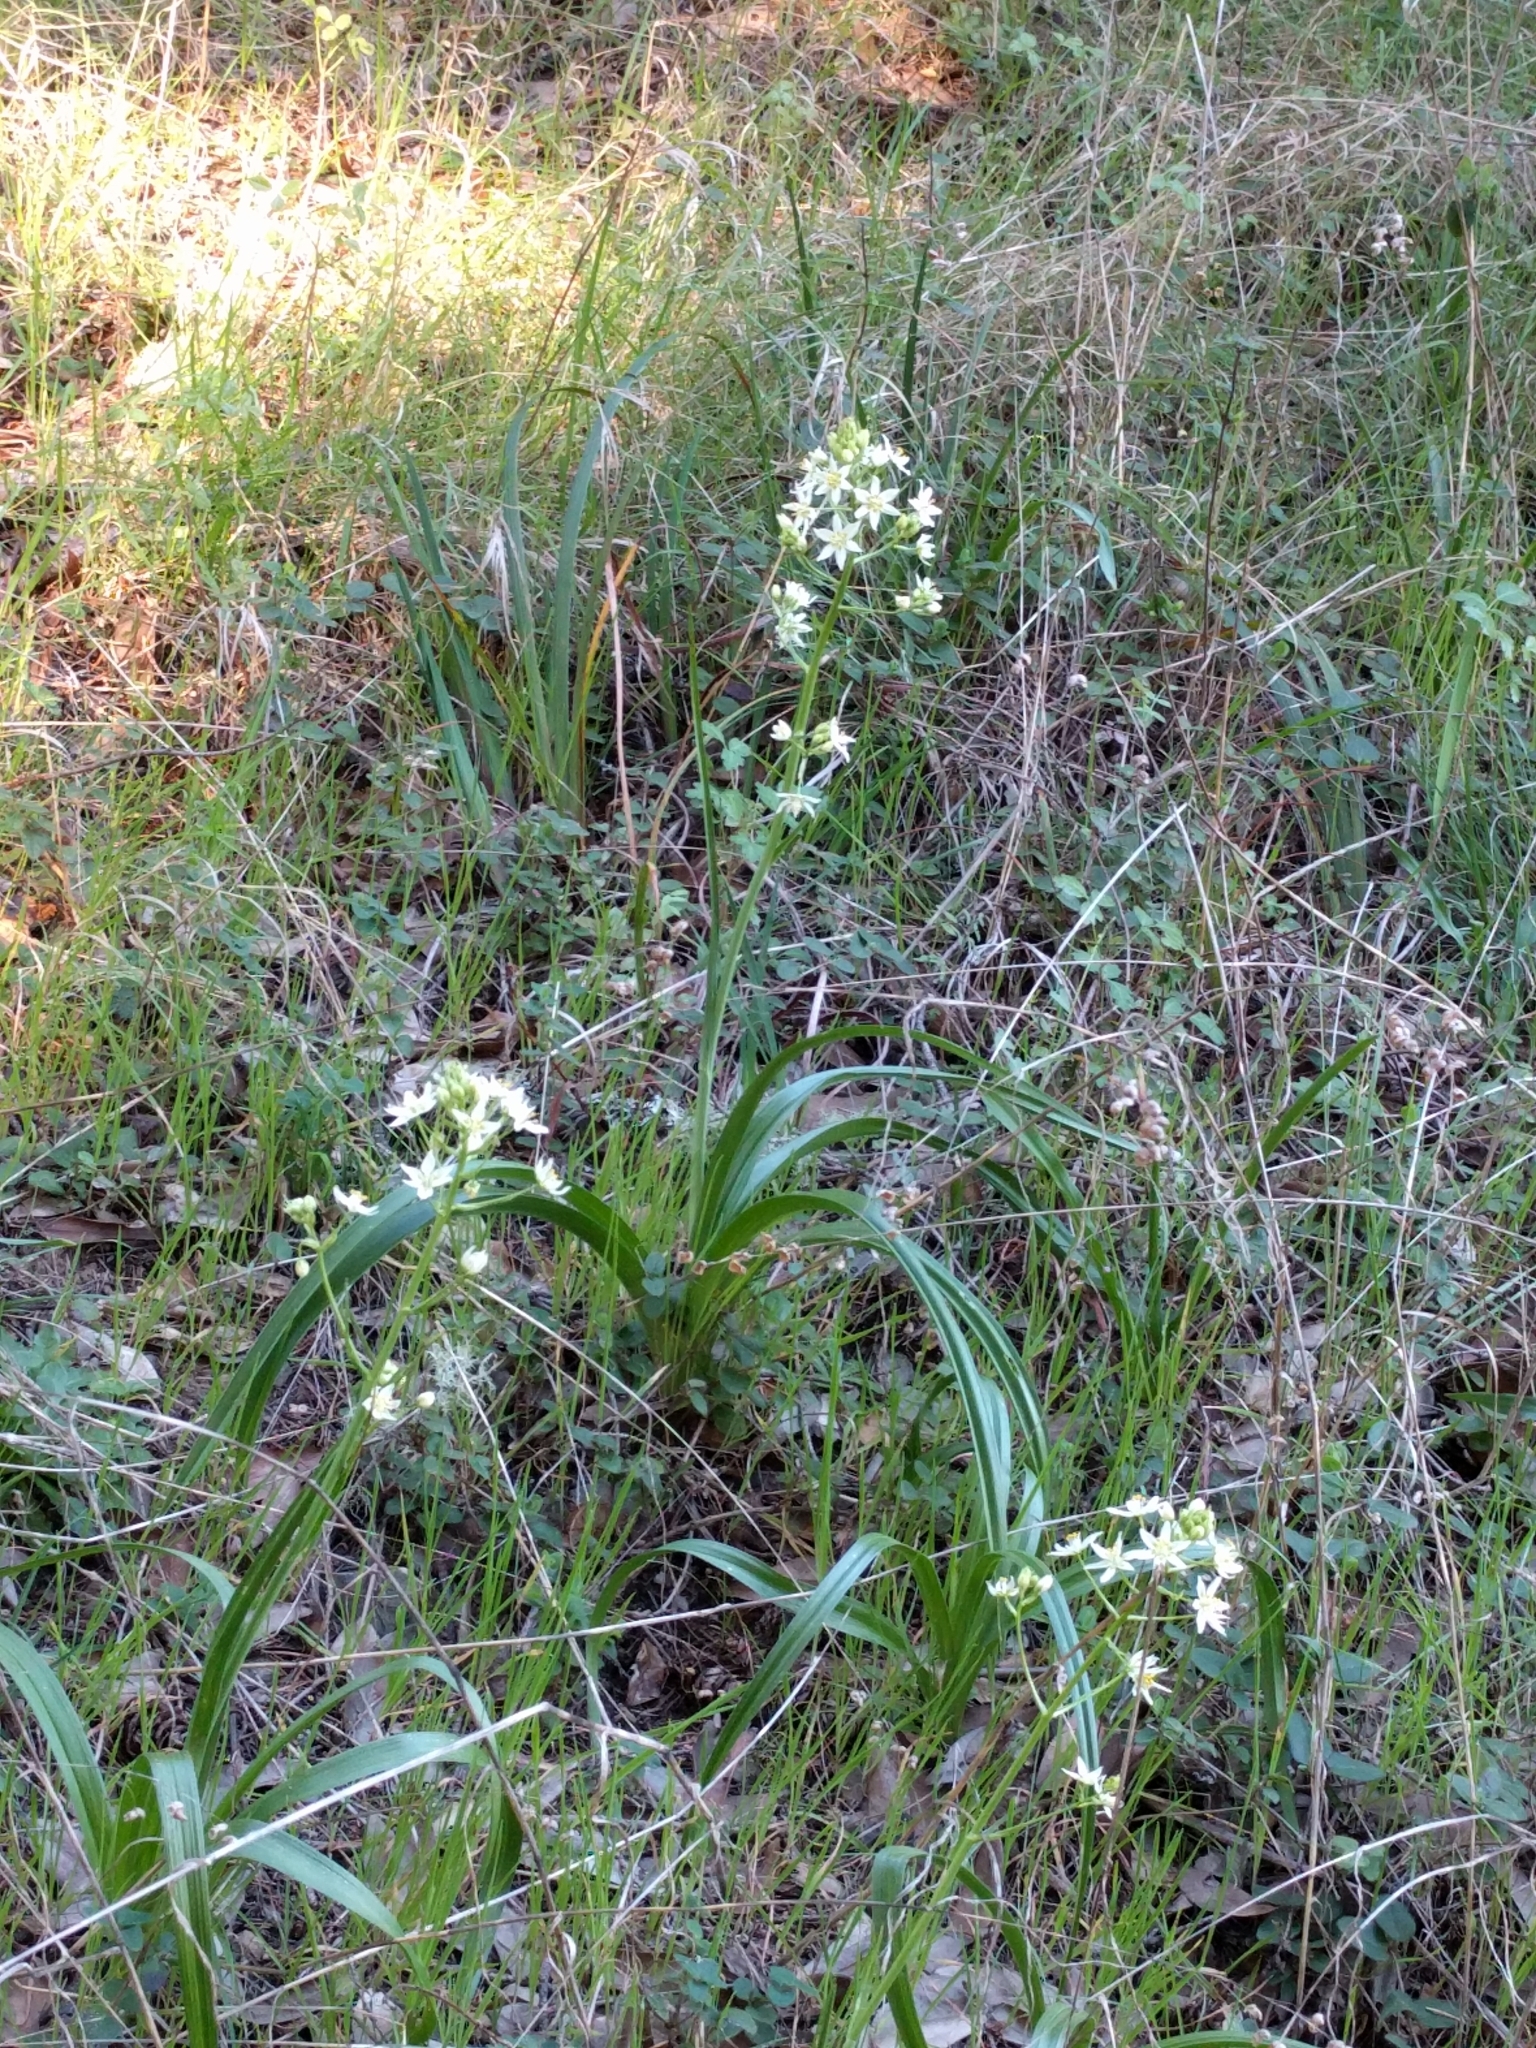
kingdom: Plantae
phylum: Tracheophyta
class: Liliopsida
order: Liliales
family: Melanthiaceae
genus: Toxicoscordion
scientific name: Toxicoscordion fremontii
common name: Fremont's death camas
